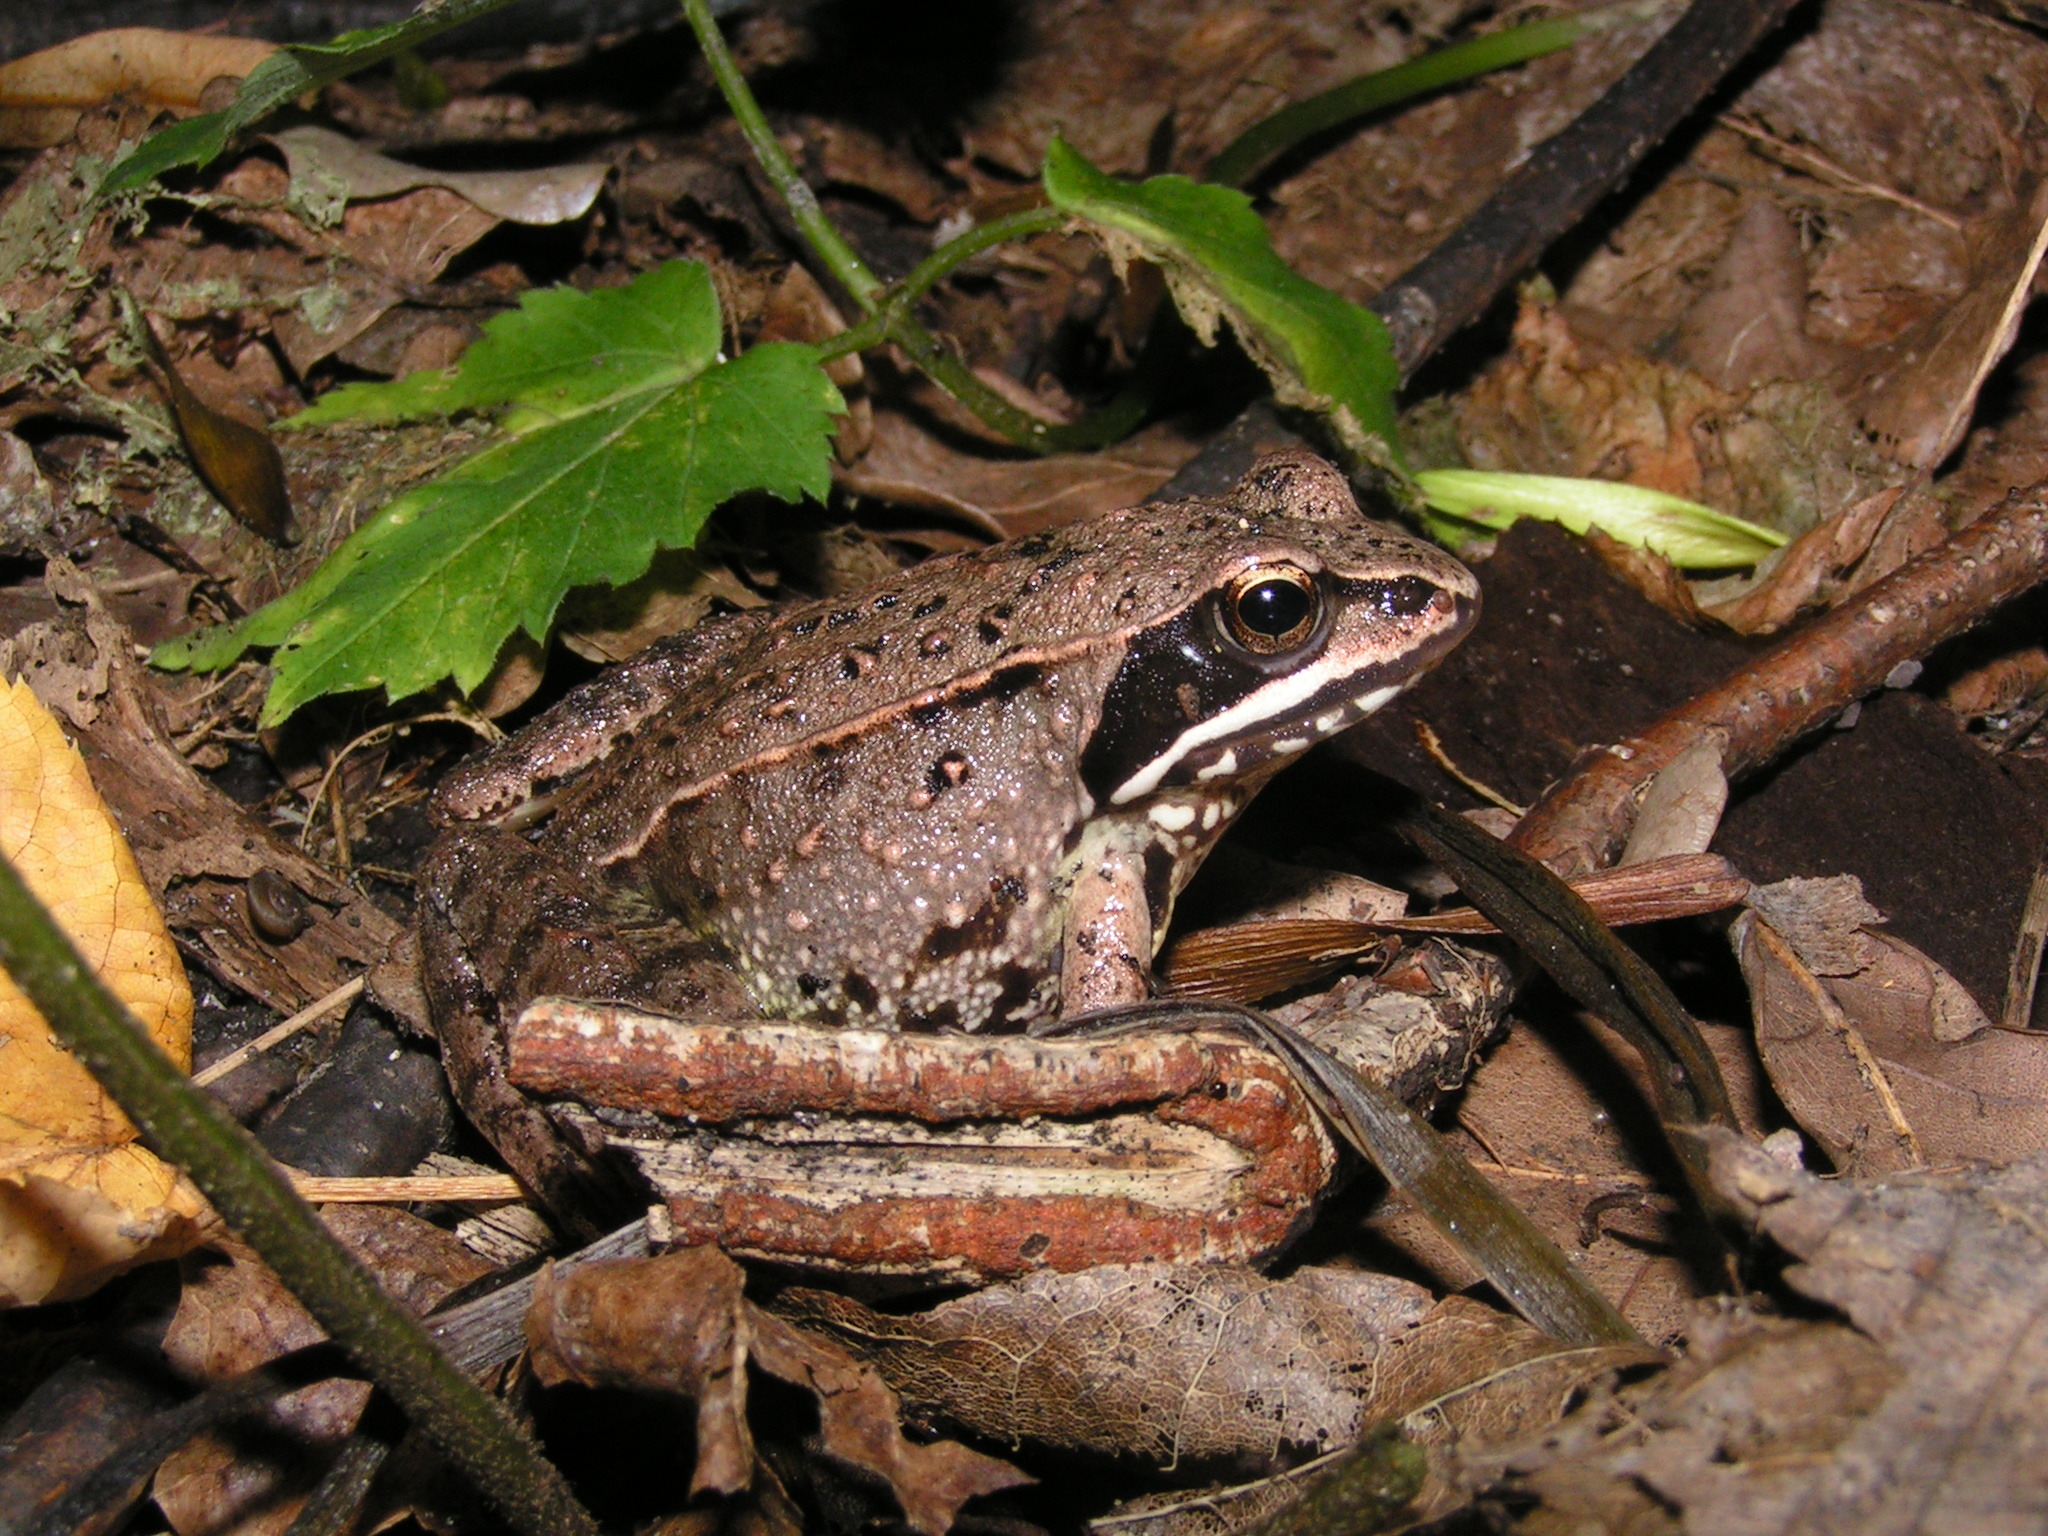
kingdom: Animalia
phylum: Chordata
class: Amphibia
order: Anura
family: Ranidae
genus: Rana
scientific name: Rana arvalis
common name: Moor frog
